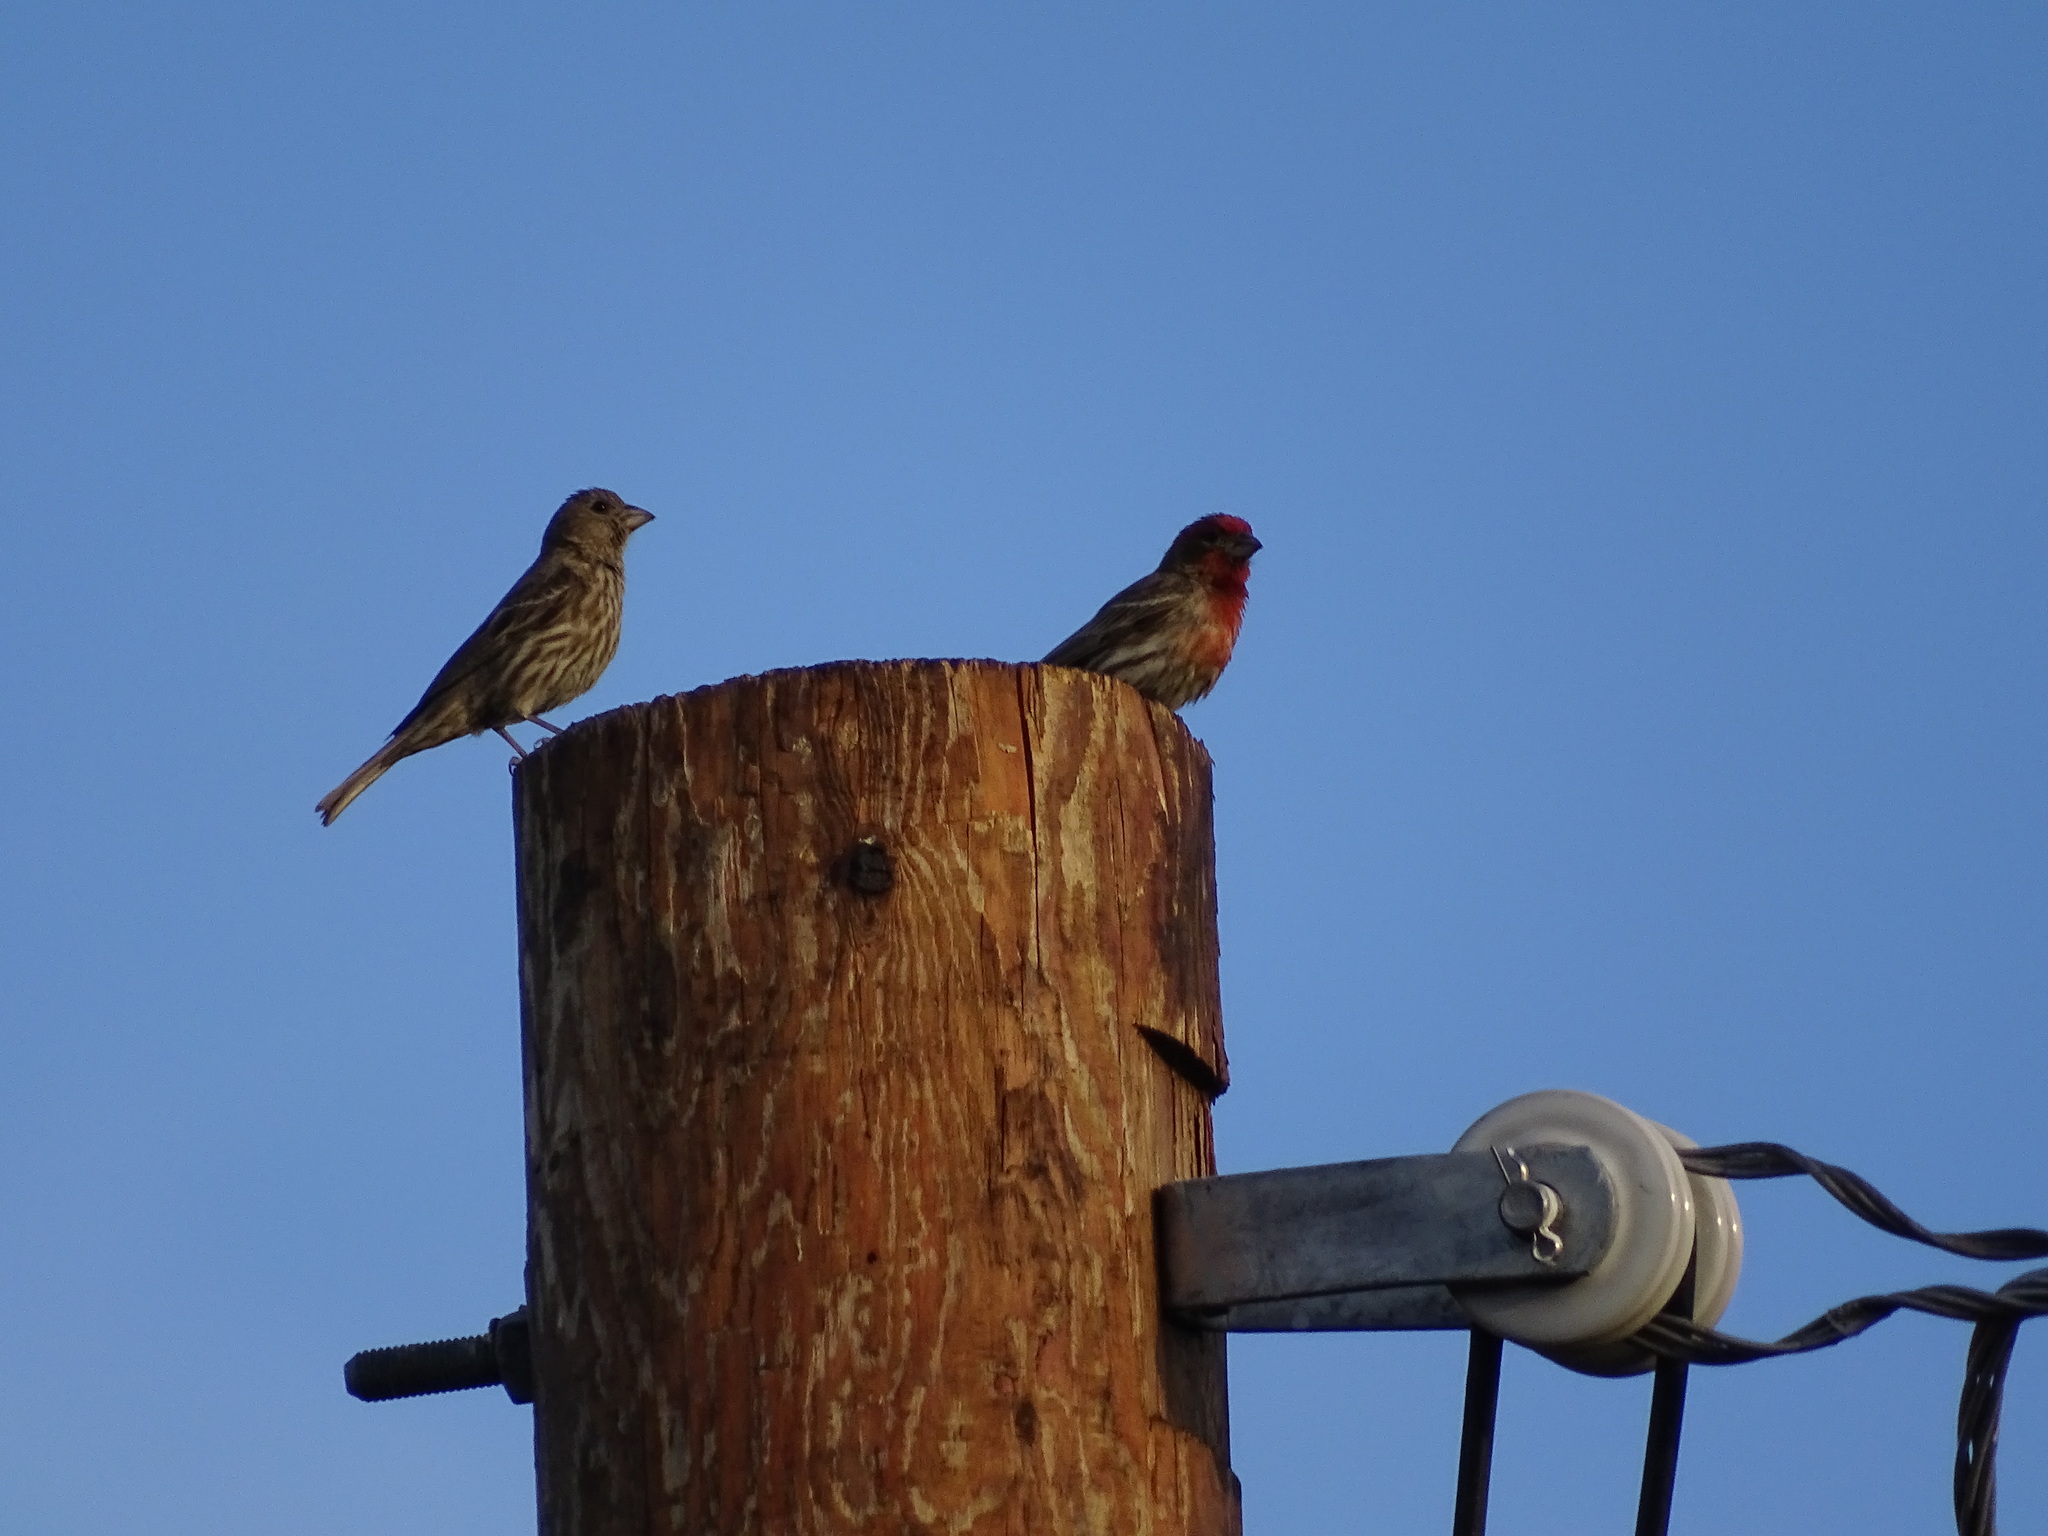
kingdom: Animalia
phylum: Chordata
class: Aves
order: Passeriformes
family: Fringillidae
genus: Haemorhous
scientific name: Haemorhous mexicanus
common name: House finch
